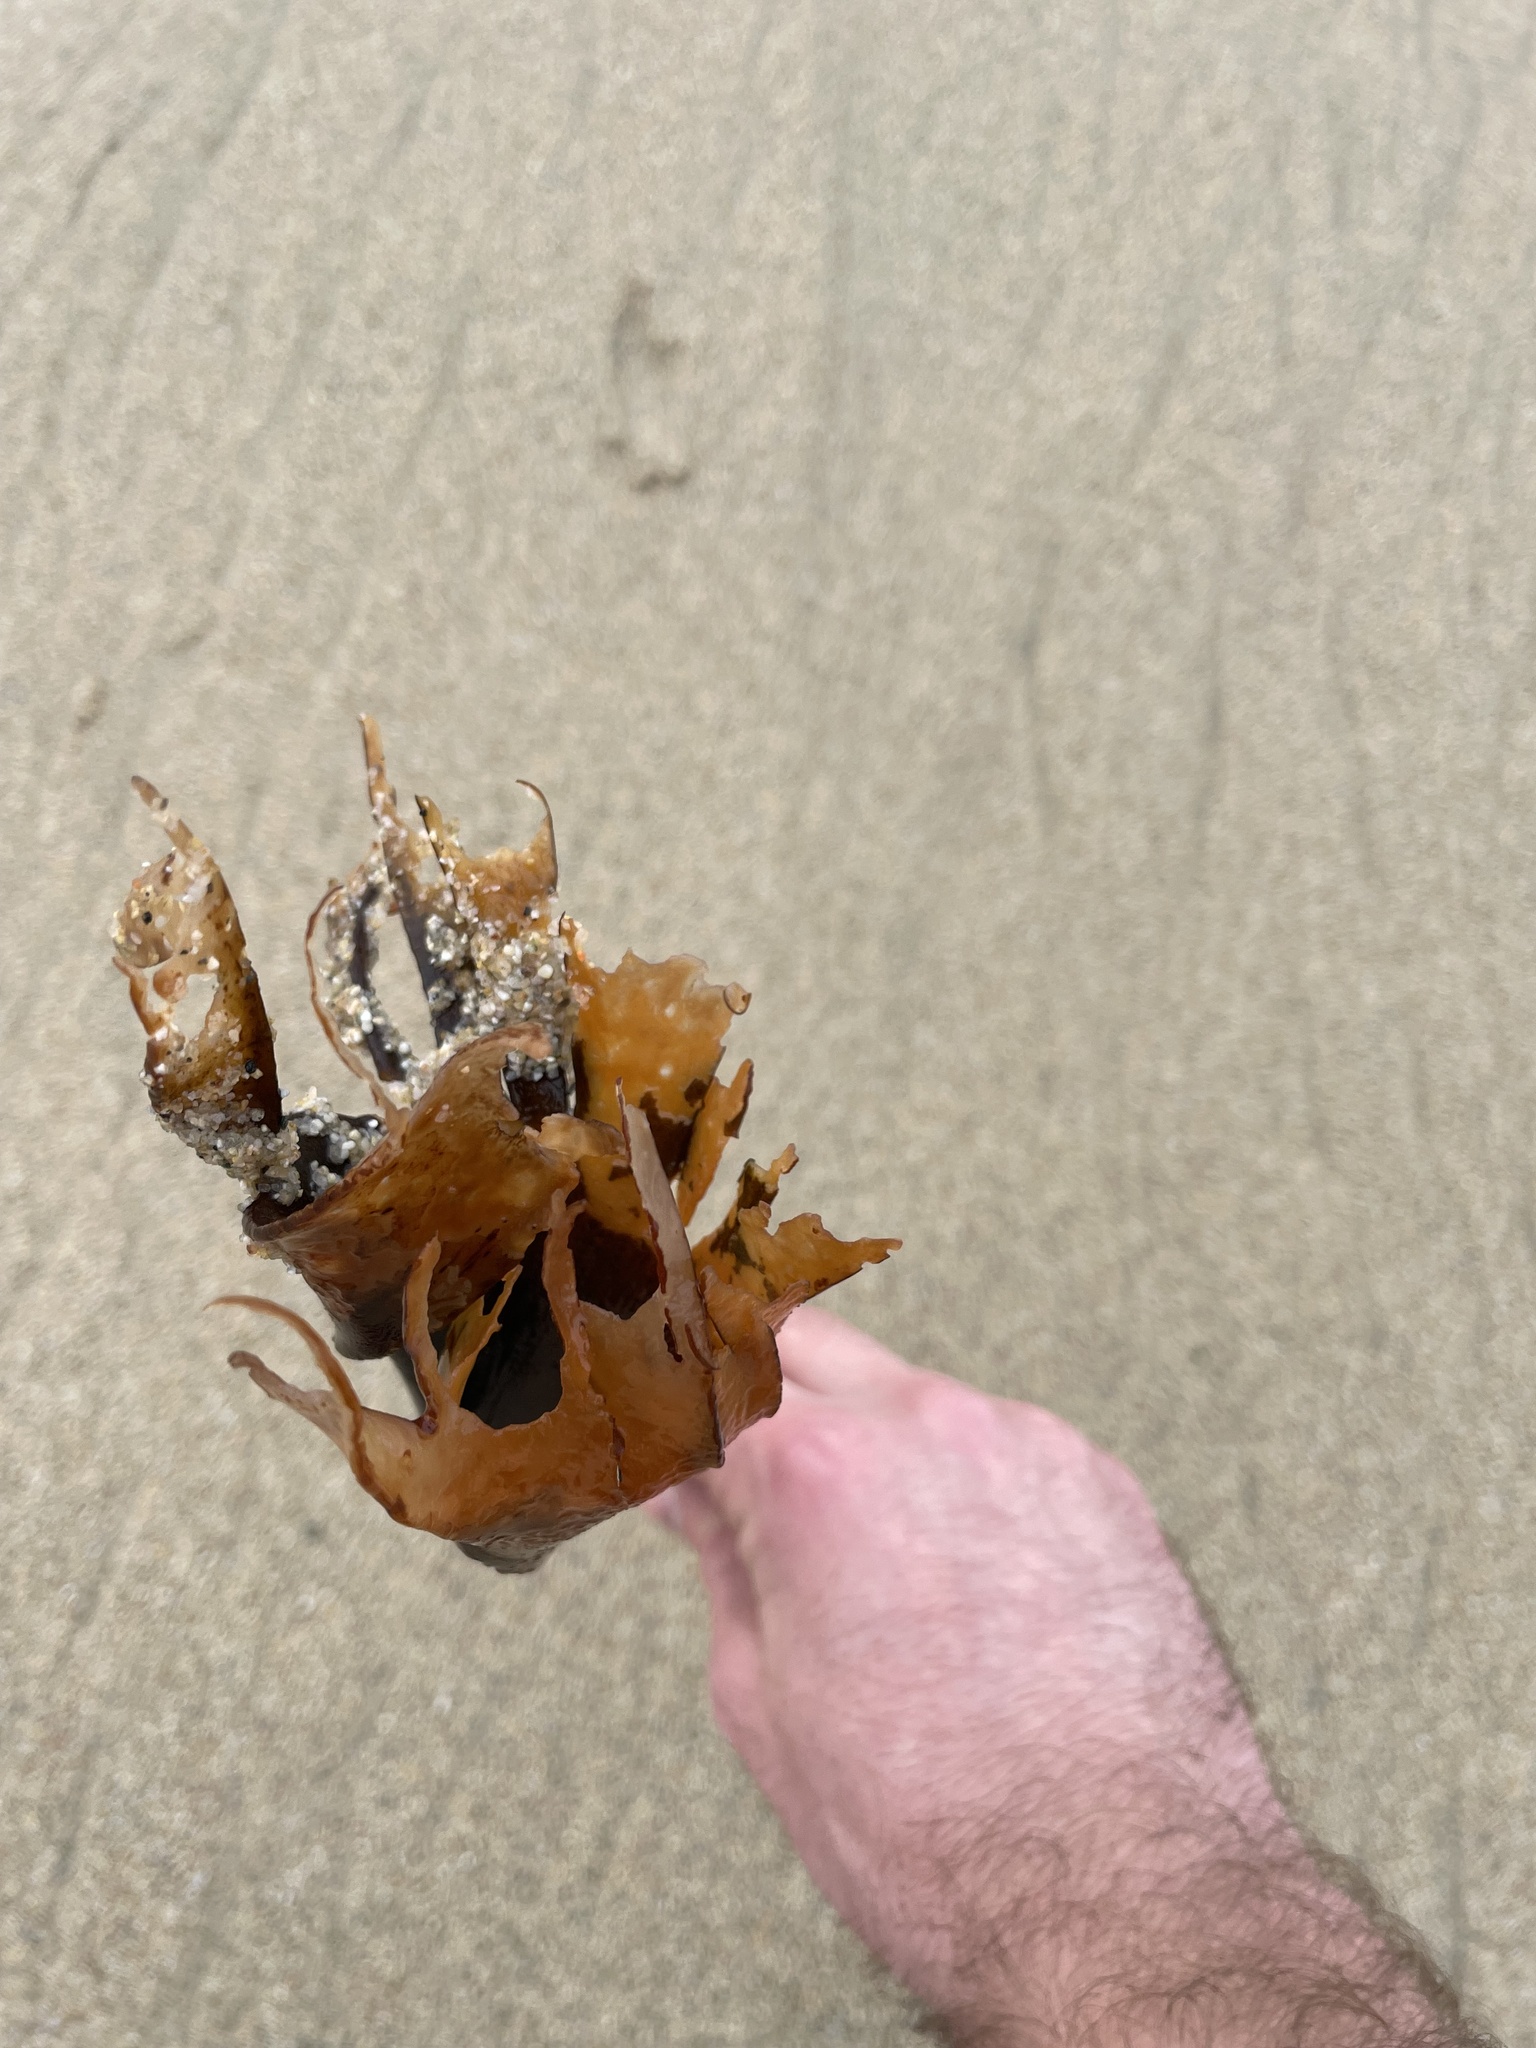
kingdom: Chromista
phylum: Ochrophyta
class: Phaeophyceae
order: Laminariales
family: Lessoniaceae
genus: Eisenia
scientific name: Eisenia arborea
